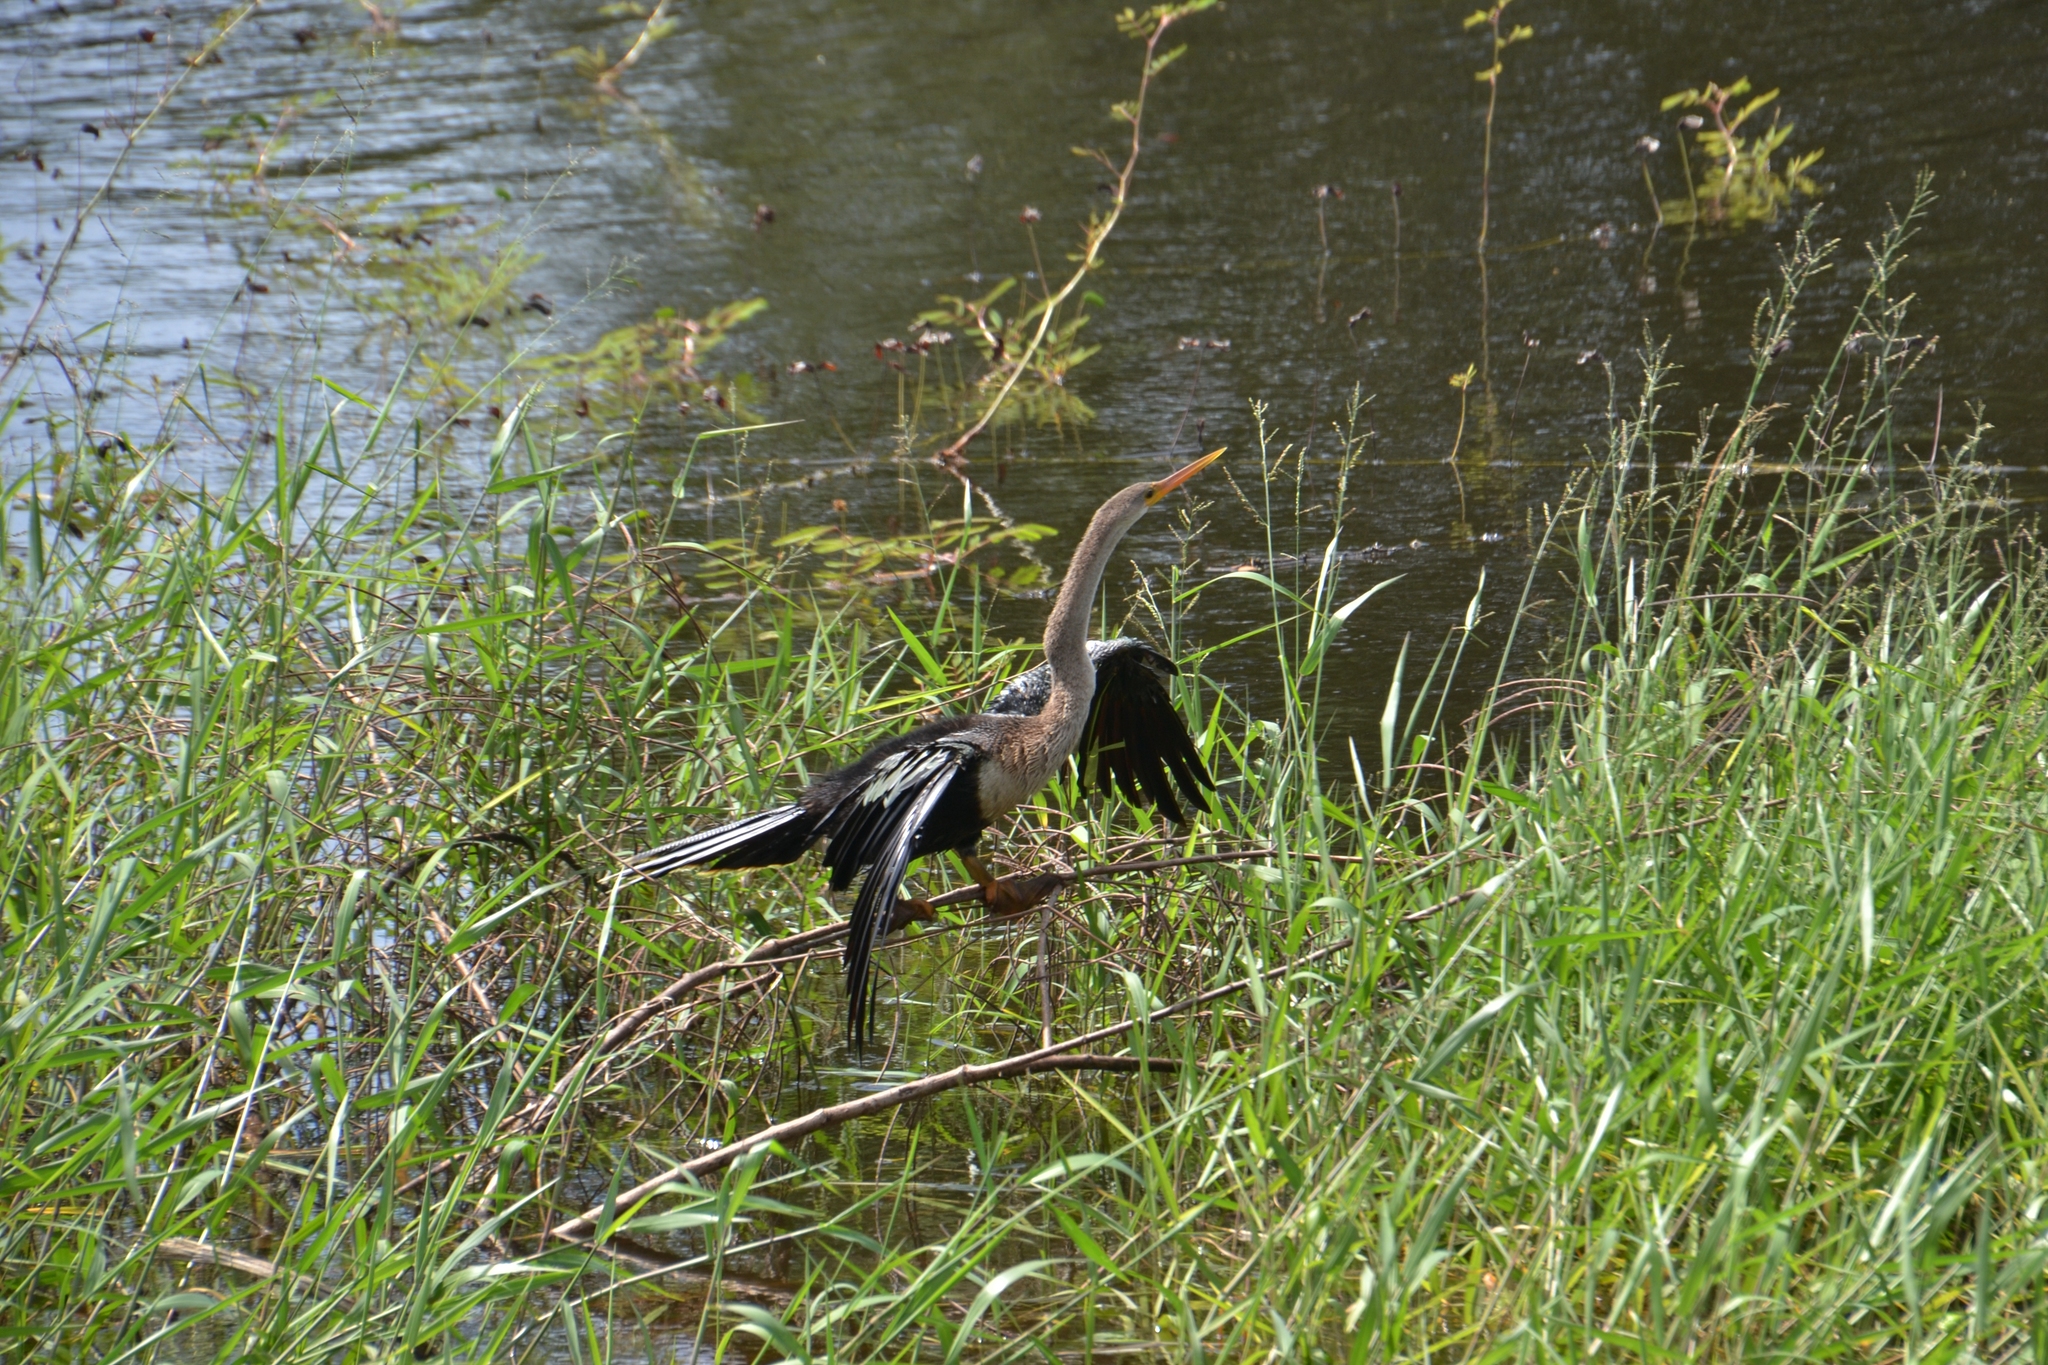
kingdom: Animalia
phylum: Chordata
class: Aves
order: Suliformes
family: Anhingidae
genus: Anhinga
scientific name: Anhinga anhinga
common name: Anhinga
